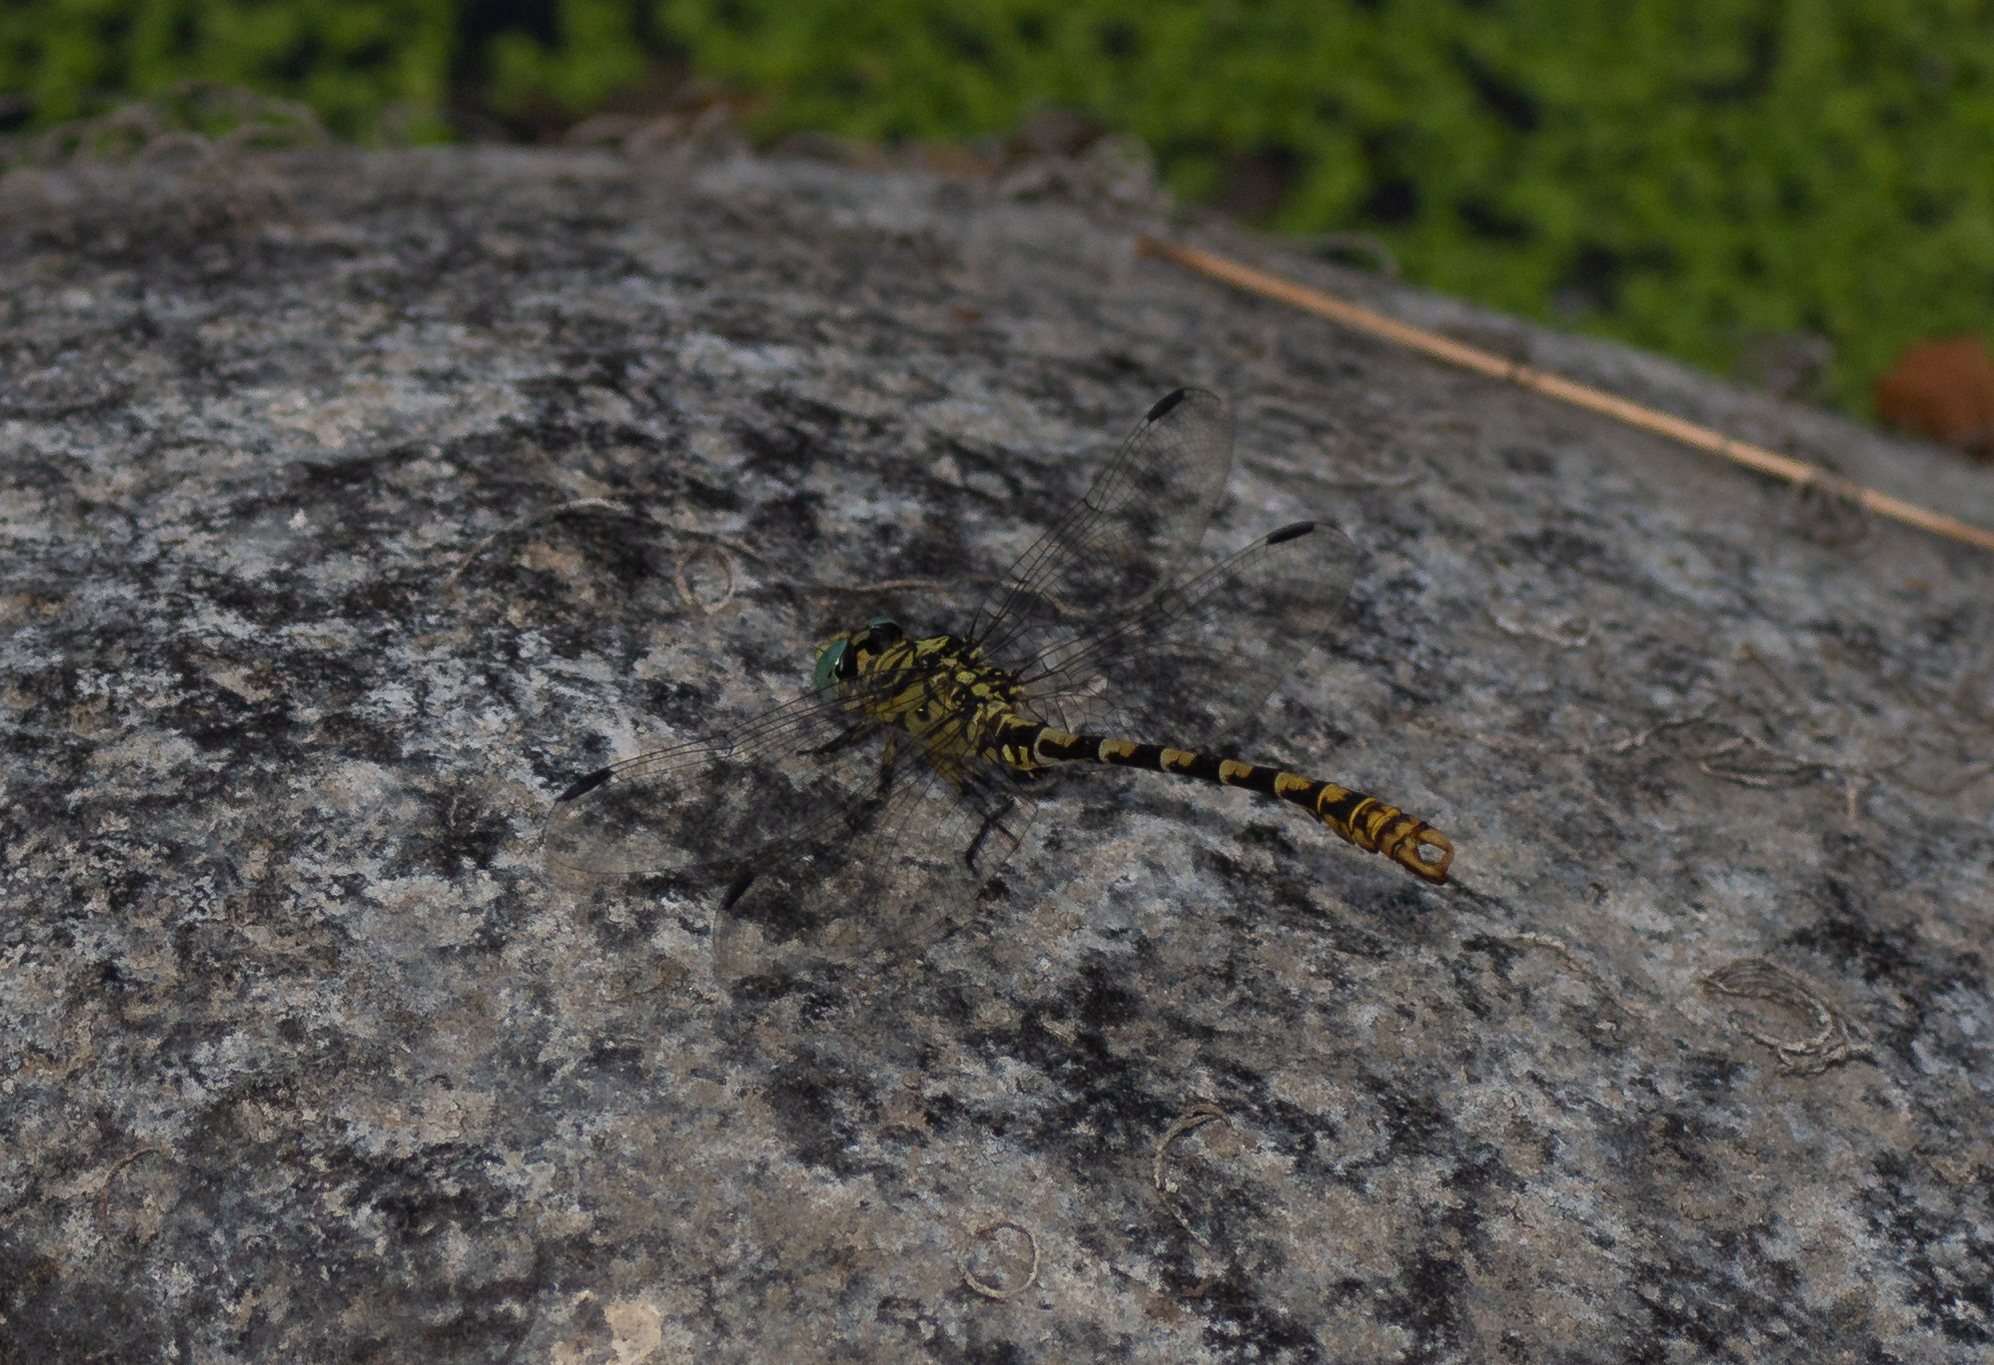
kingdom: Animalia
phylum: Arthropoda
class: Insecta
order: Odonata
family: Gomphidae
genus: Onychogomphus
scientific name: Onychogomphus forcipatus
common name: Small pincertail
